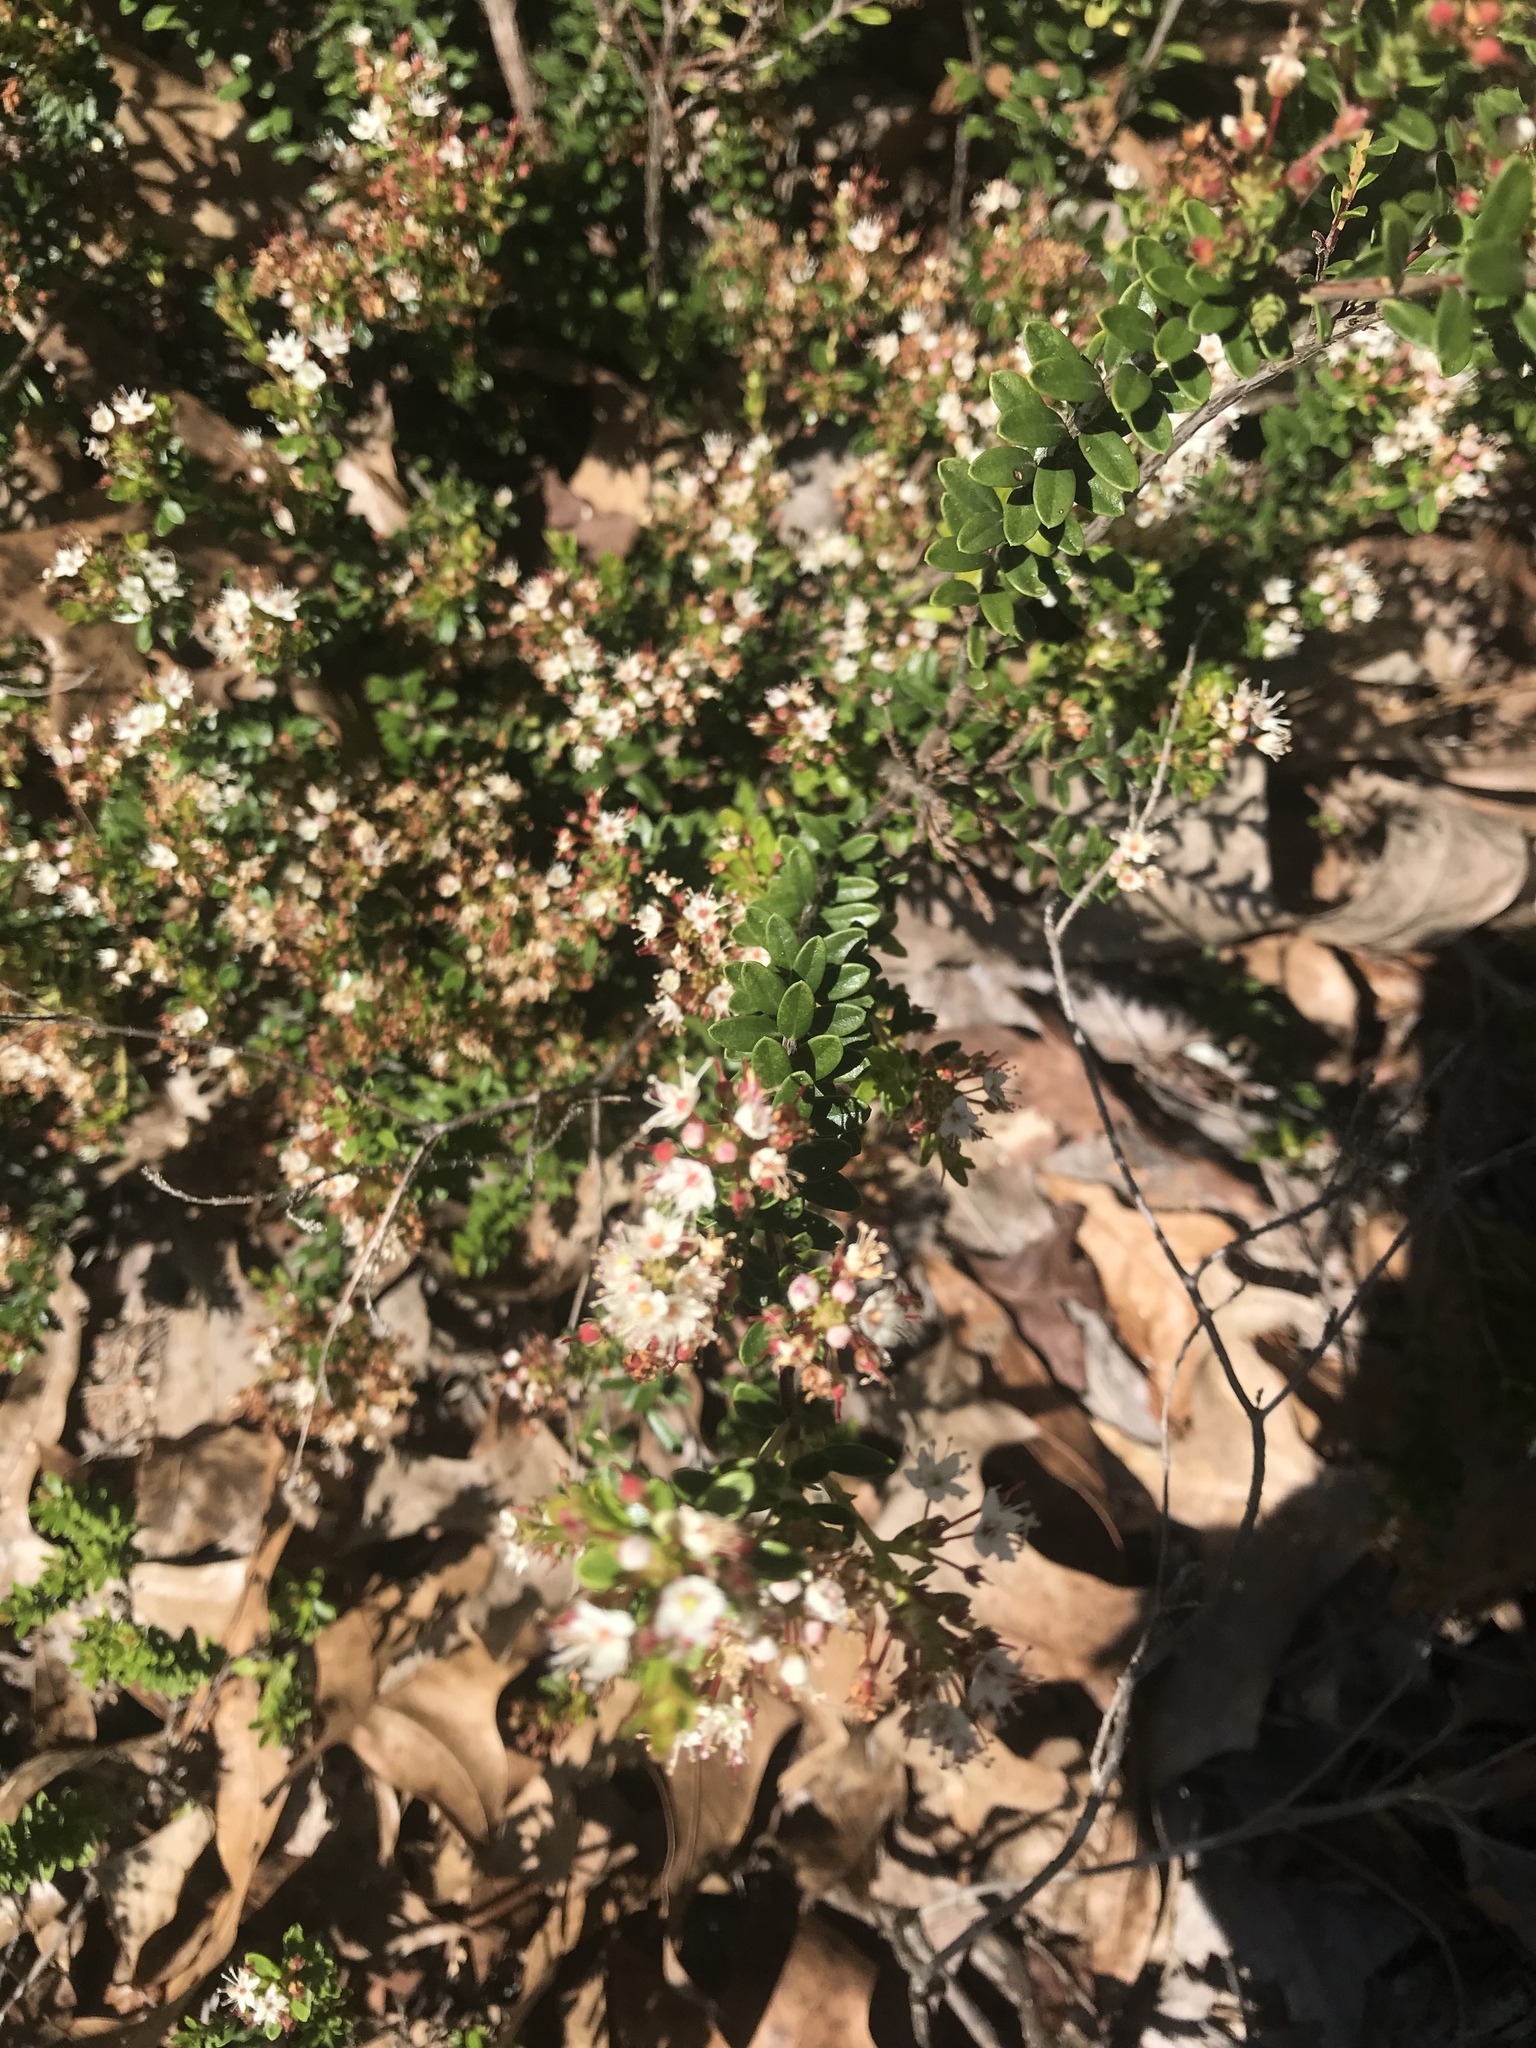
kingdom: Plantae
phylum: Tracheophyta
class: Magnoliopsida
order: Ericales
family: Ericaceae
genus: Kalmia
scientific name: Kalmia buxifolia
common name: Sandmyrtle
